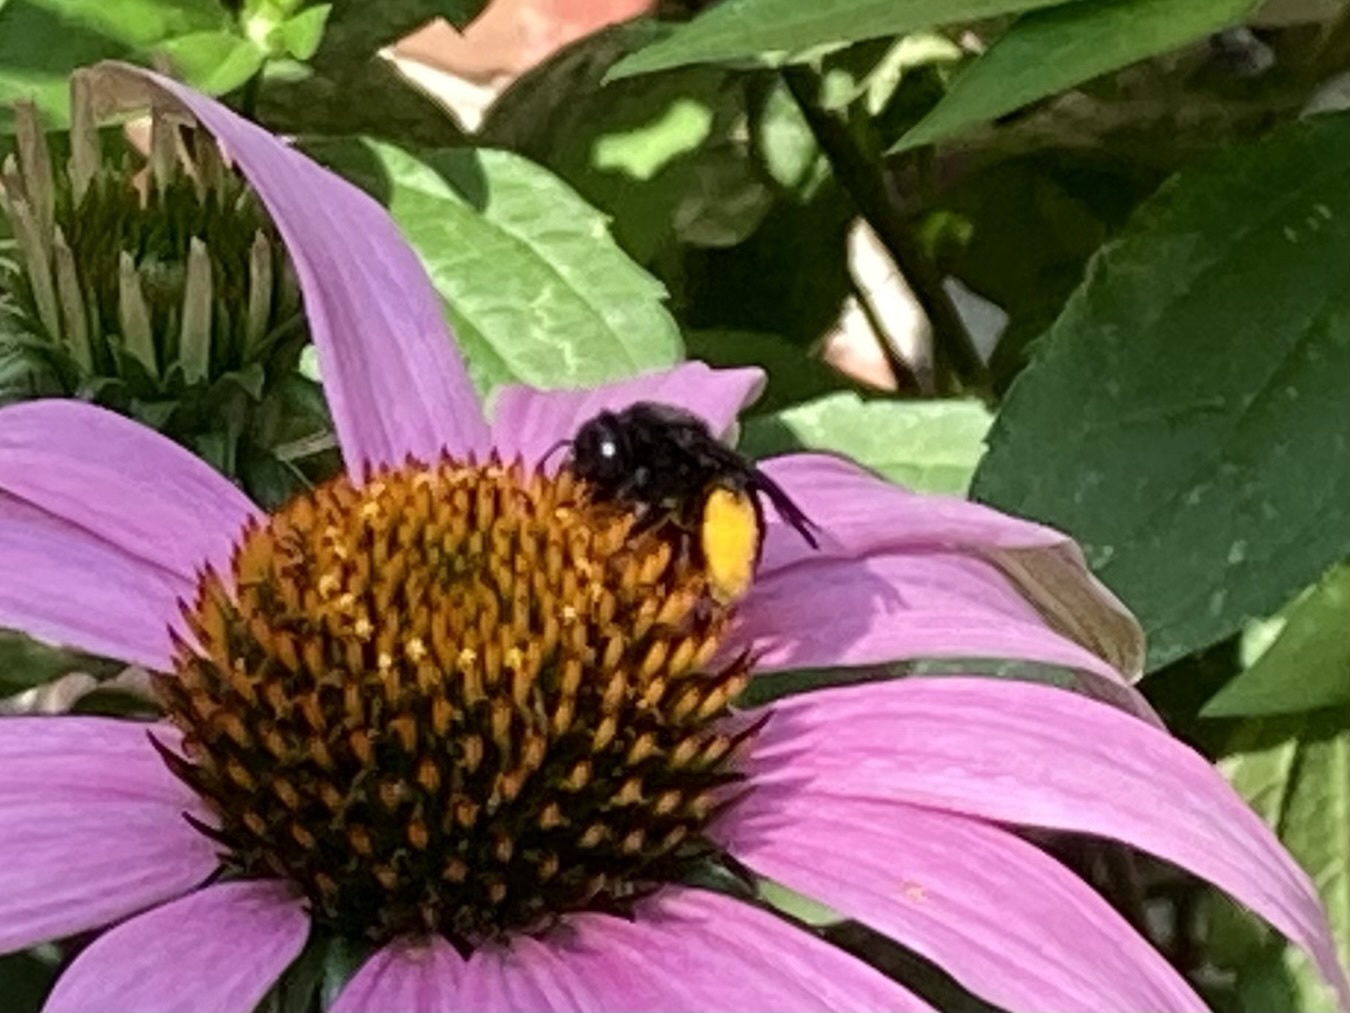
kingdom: Animalia
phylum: Arthropoda
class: Insecta
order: Hymenoptera
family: Apidae
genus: Melissodes
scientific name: Melissodes bimaculatus
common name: Two-spotted long-horned bee
